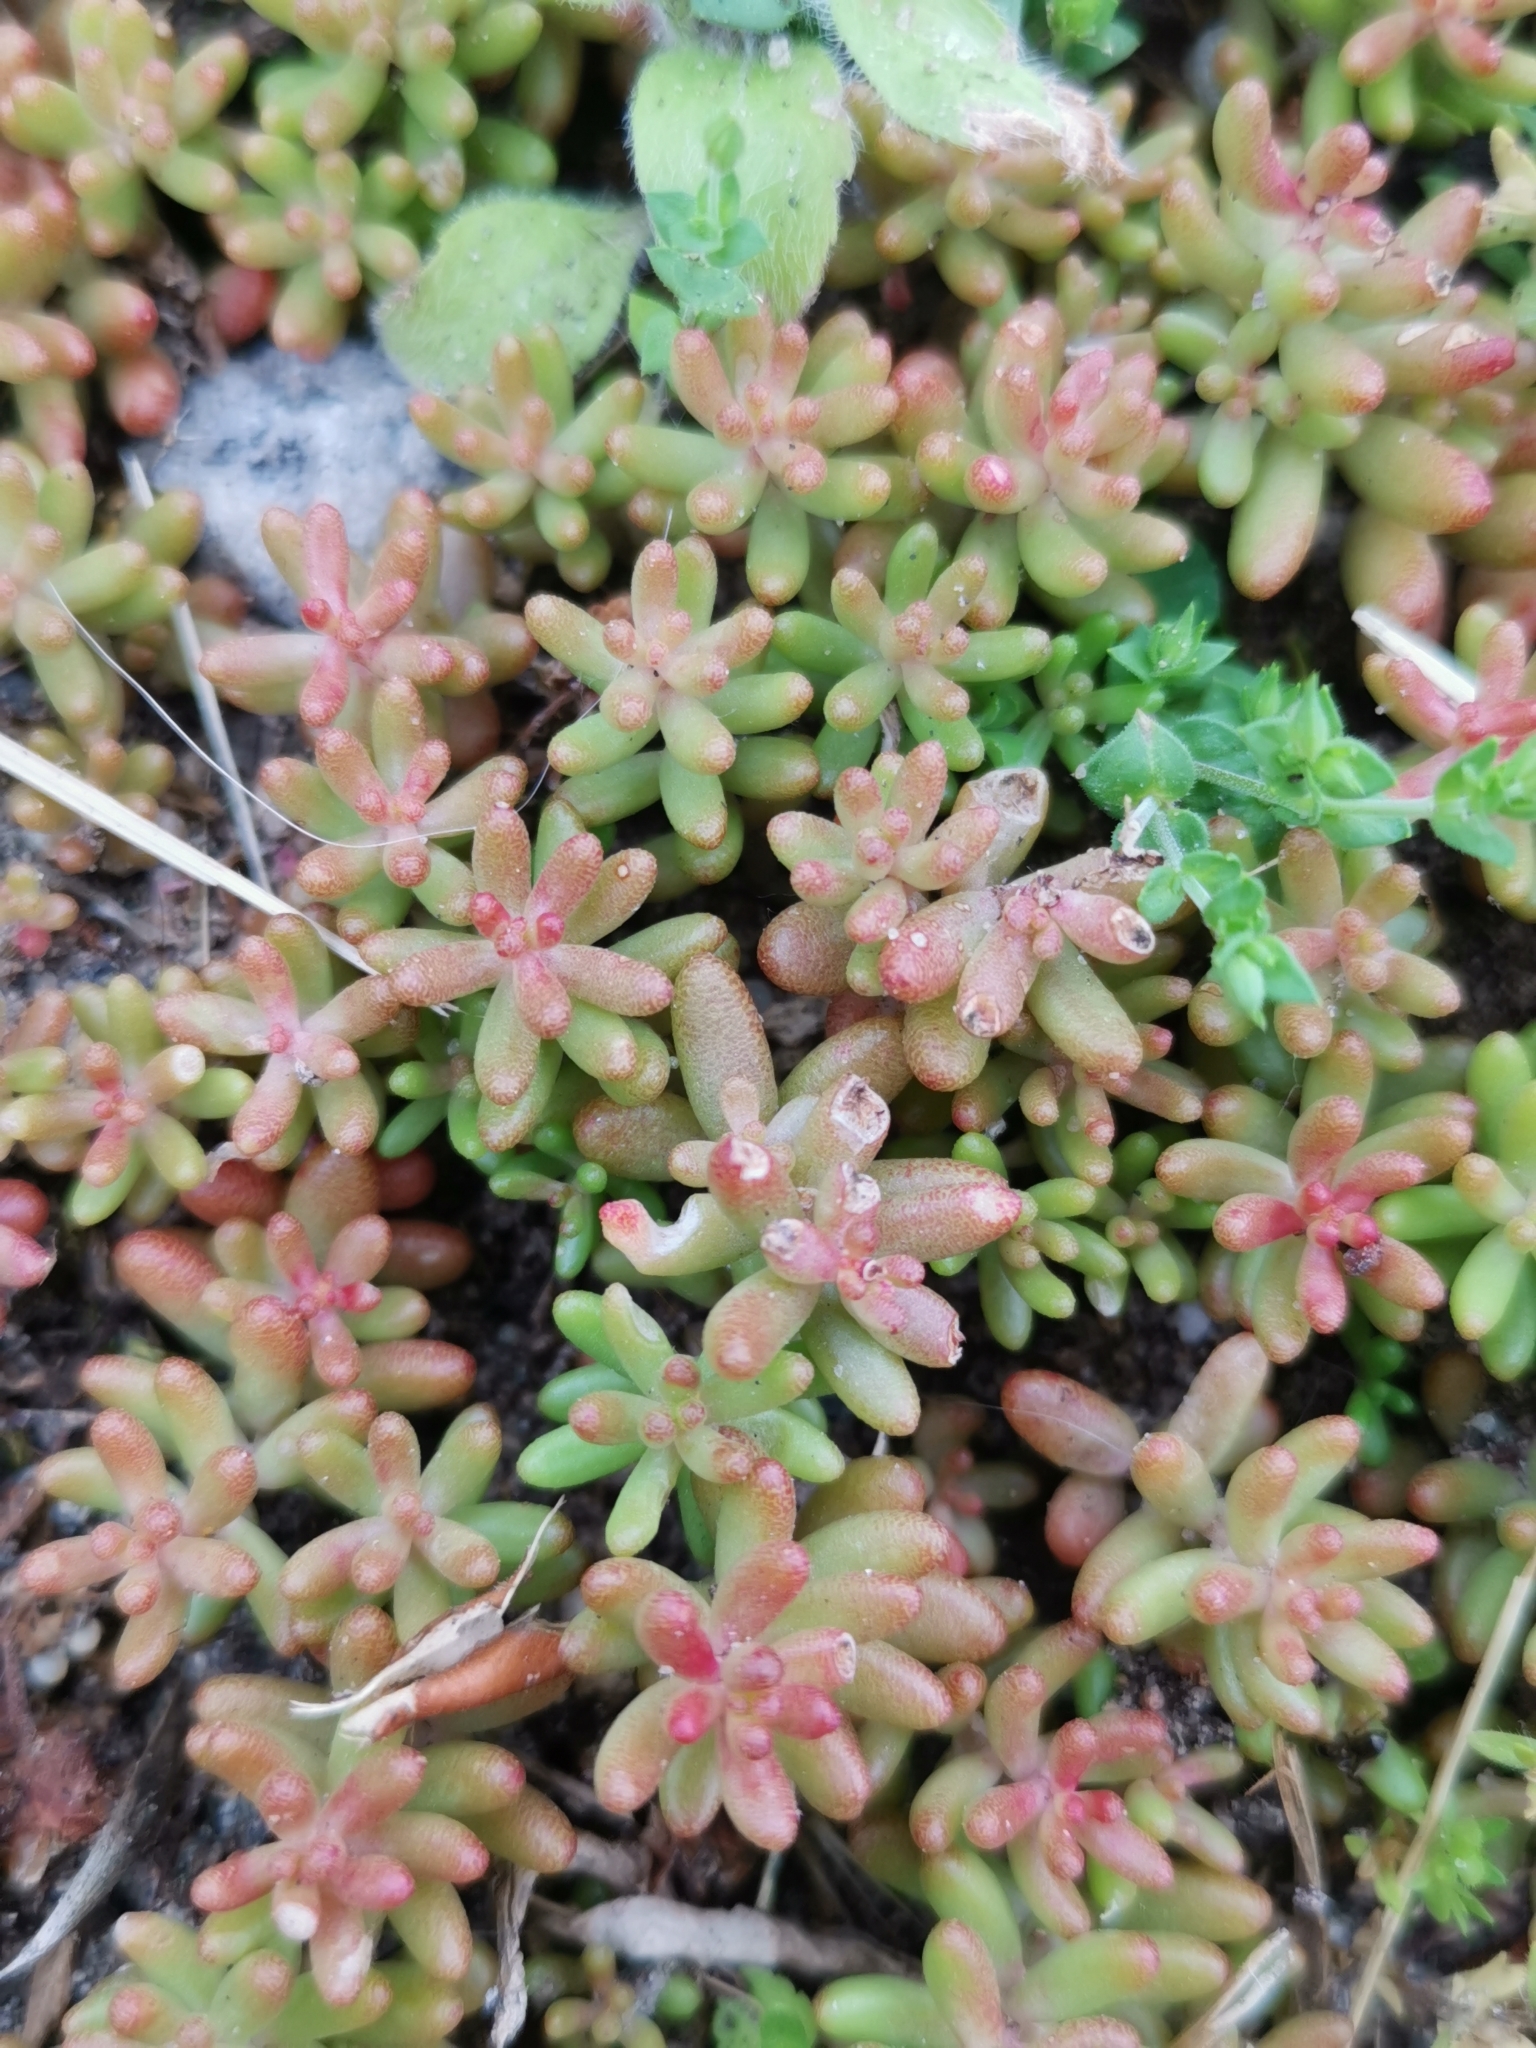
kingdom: Plantae
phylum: Tracheophyta
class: Magnoliopsida
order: Saxifragales
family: Crassulaceae
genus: Sedum
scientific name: Sedum album
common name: White stonecrop
